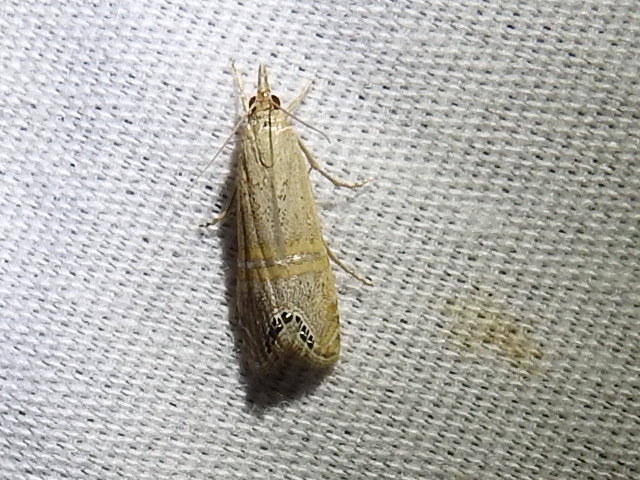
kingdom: Animalia
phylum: Arthropoda
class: Insecta
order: Lepidoptera
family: Crambidae
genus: Euchromius
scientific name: Euchromius ocellea
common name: Necklace veneer moth
